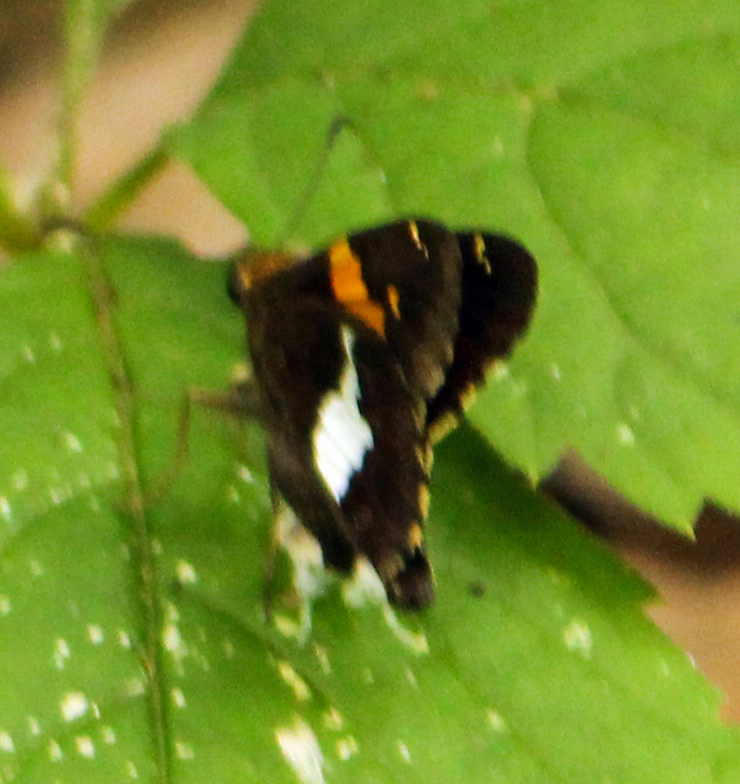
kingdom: Animalia
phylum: Arthropoda
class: Insecta
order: Lepidoptera
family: Hesperiidae
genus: Epargyreus
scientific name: Epargyreus clarus
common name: Silver-spotted skipper
